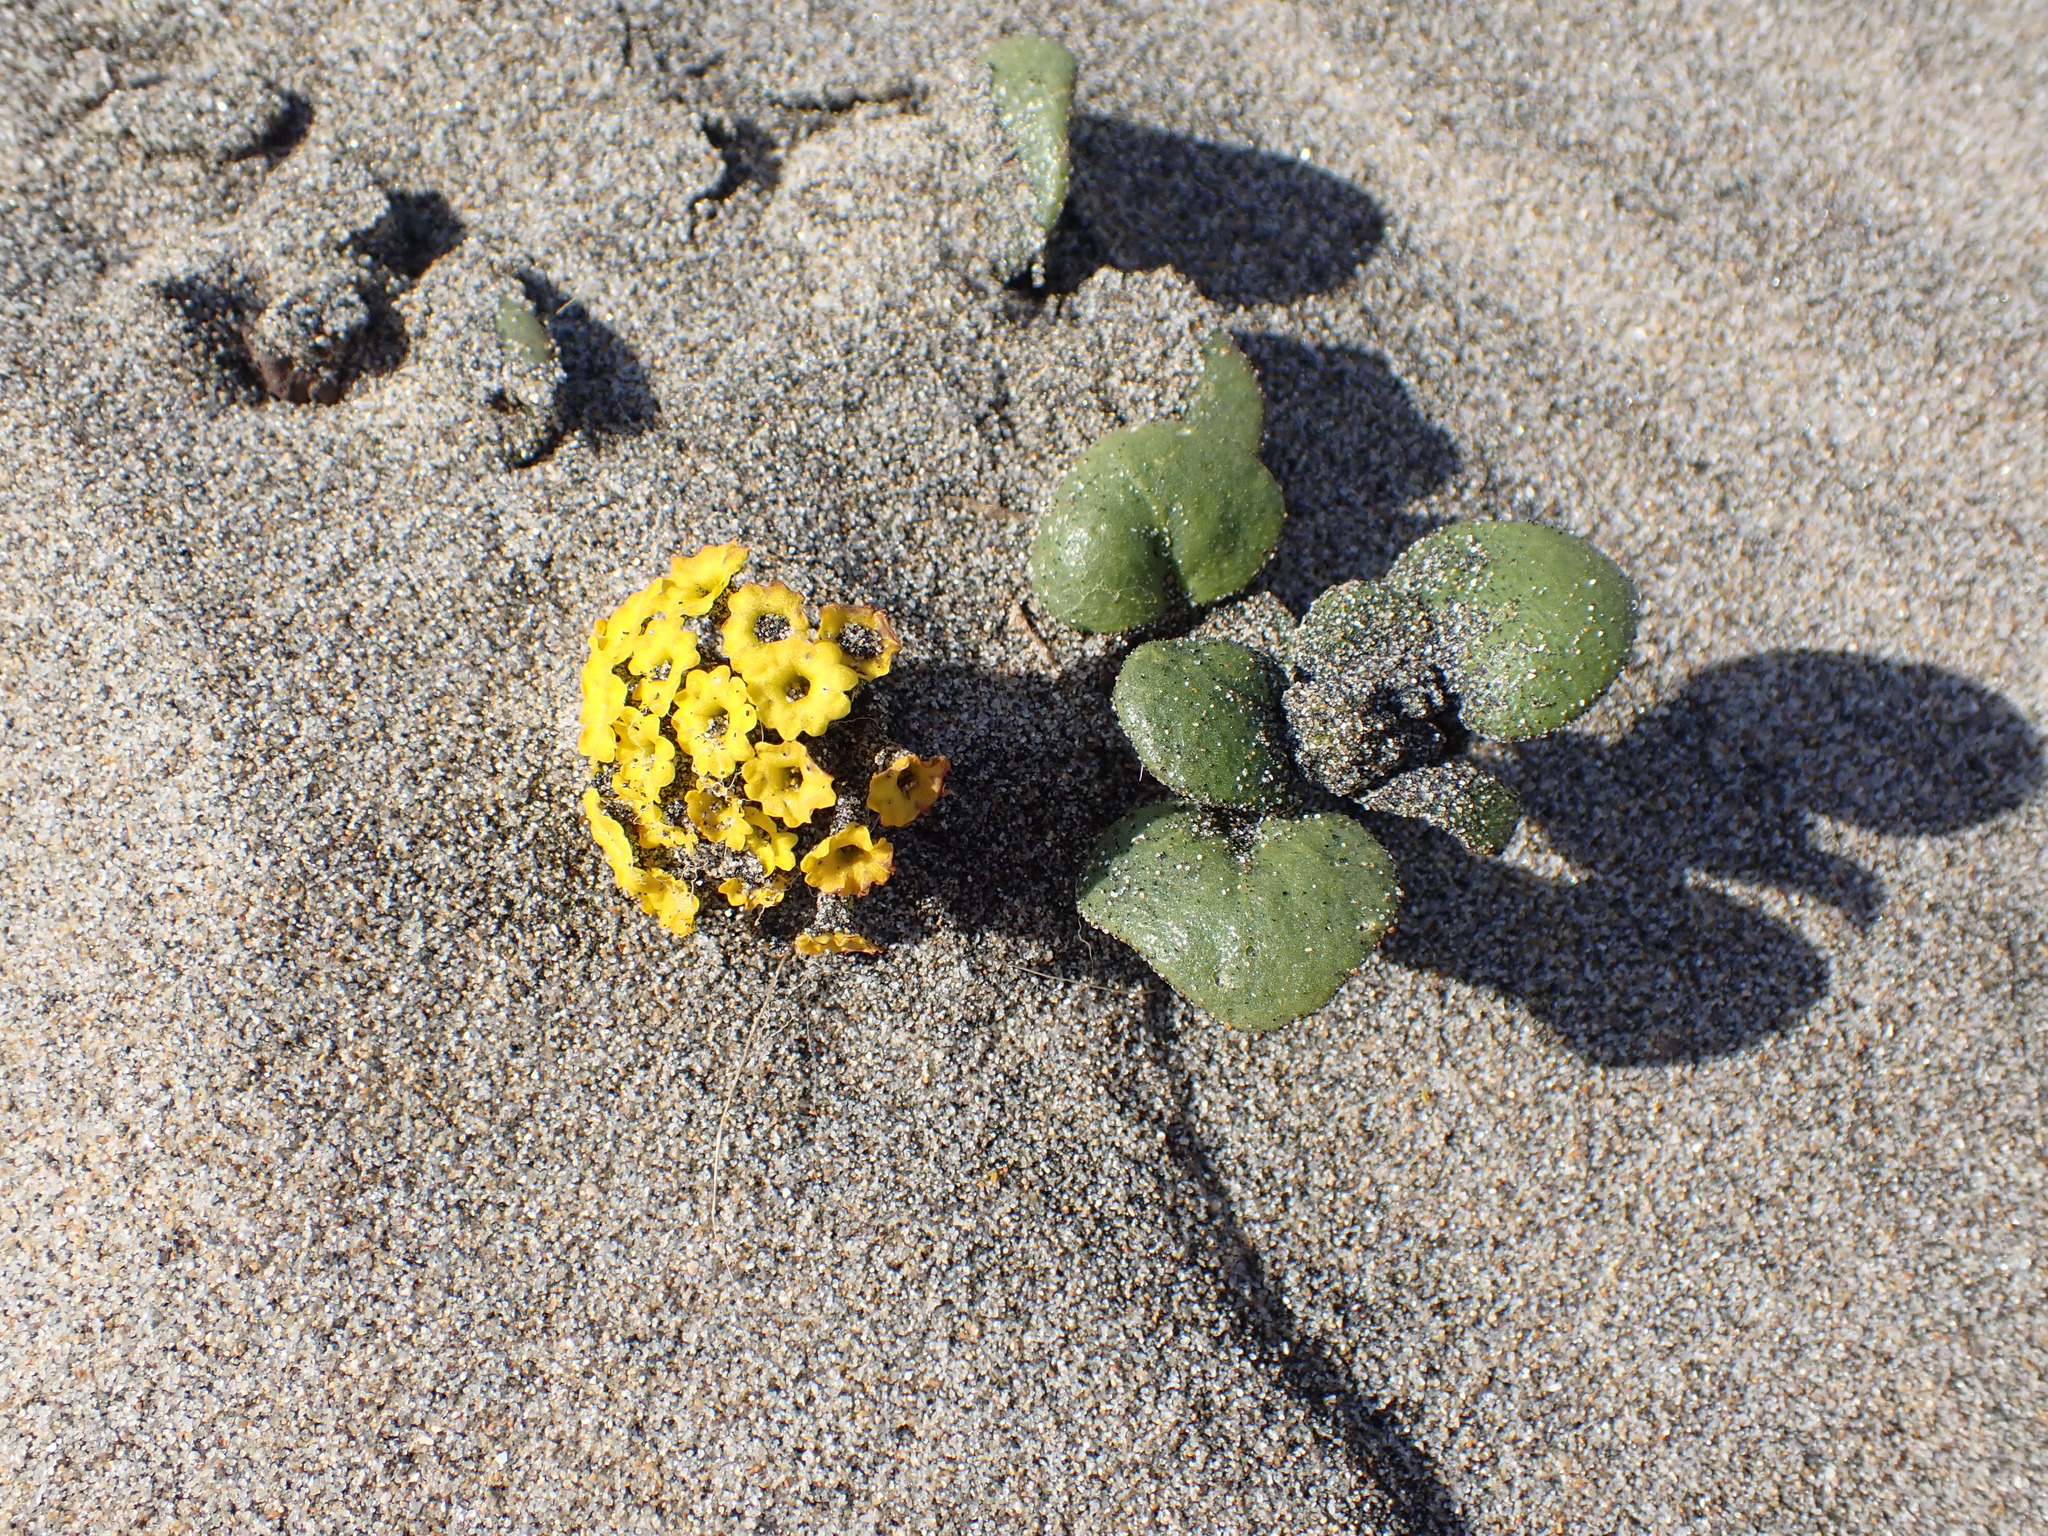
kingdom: Plantae
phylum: Tracheophyta
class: Magnoliopsida
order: Caryophyllales
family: Nyctaginaceae
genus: Abronia
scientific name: Abronia latifolia
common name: Yellow sand-verbena
